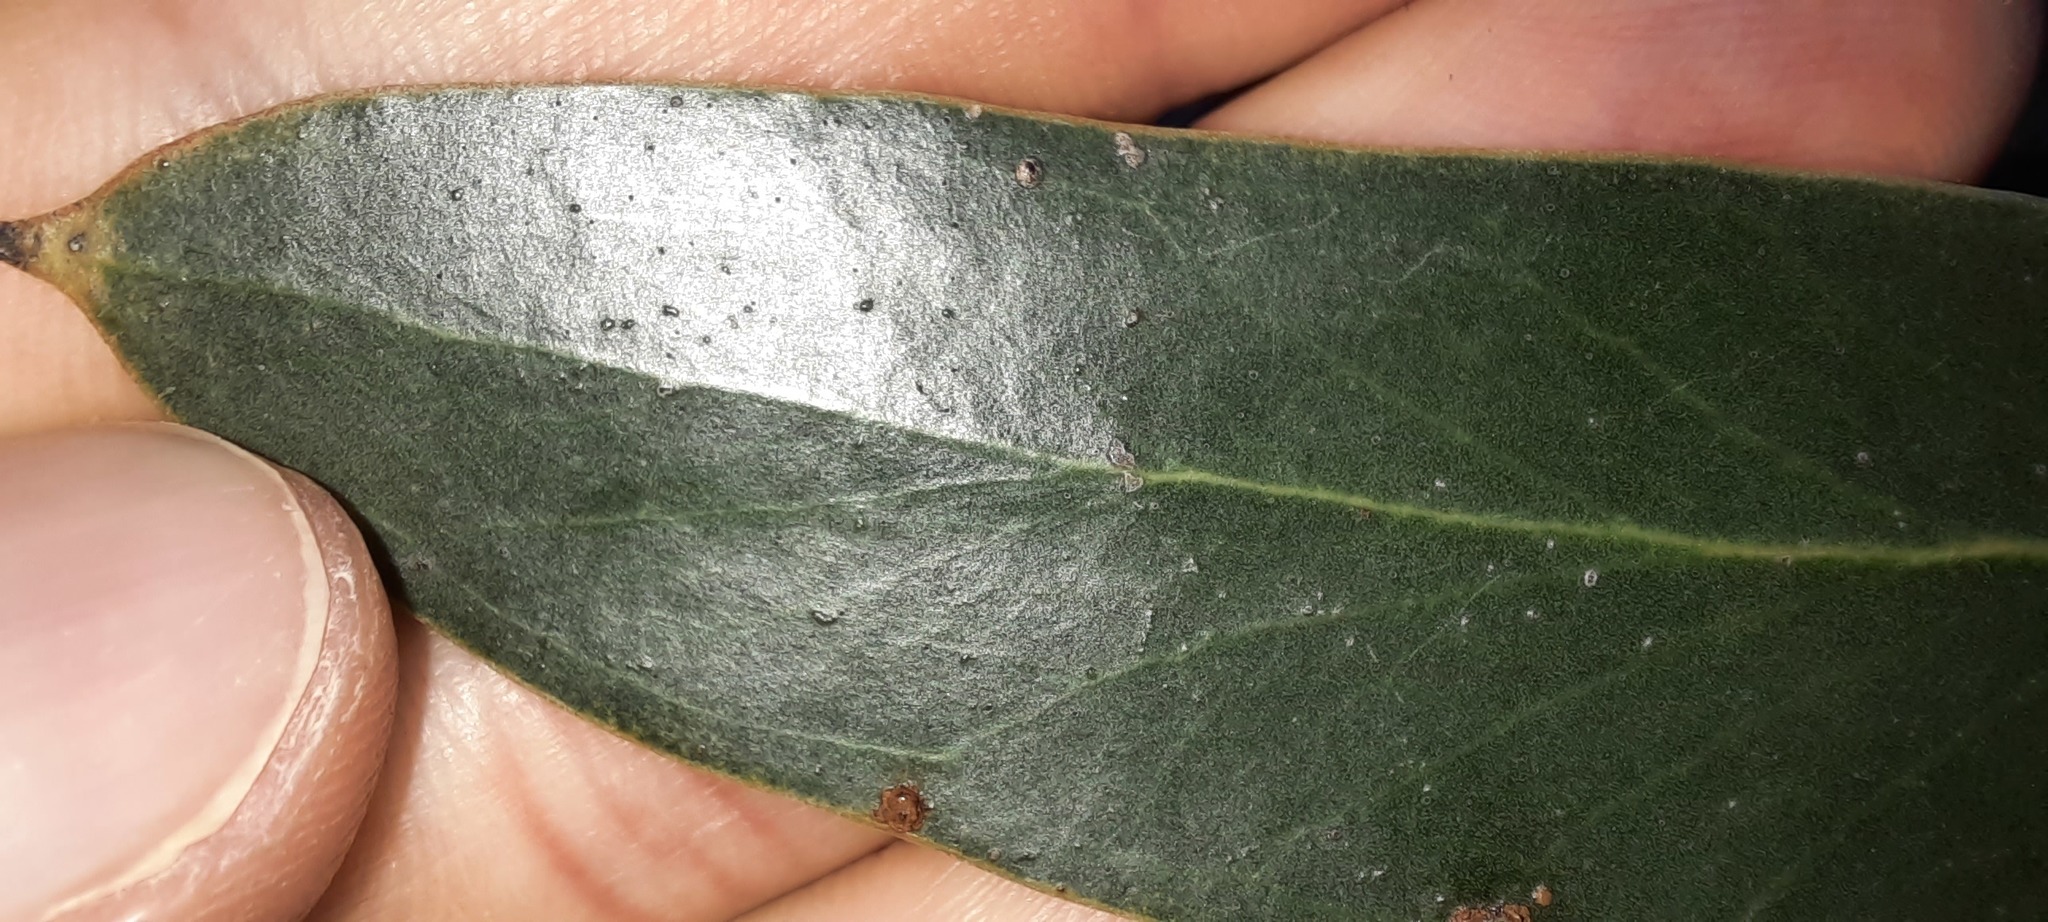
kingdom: Plantae
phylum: Tracheophyta
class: Magnoliopsida
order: Myrtales
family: Myrtaceae
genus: Eucalyptus
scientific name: Eucalyptus baxteri
